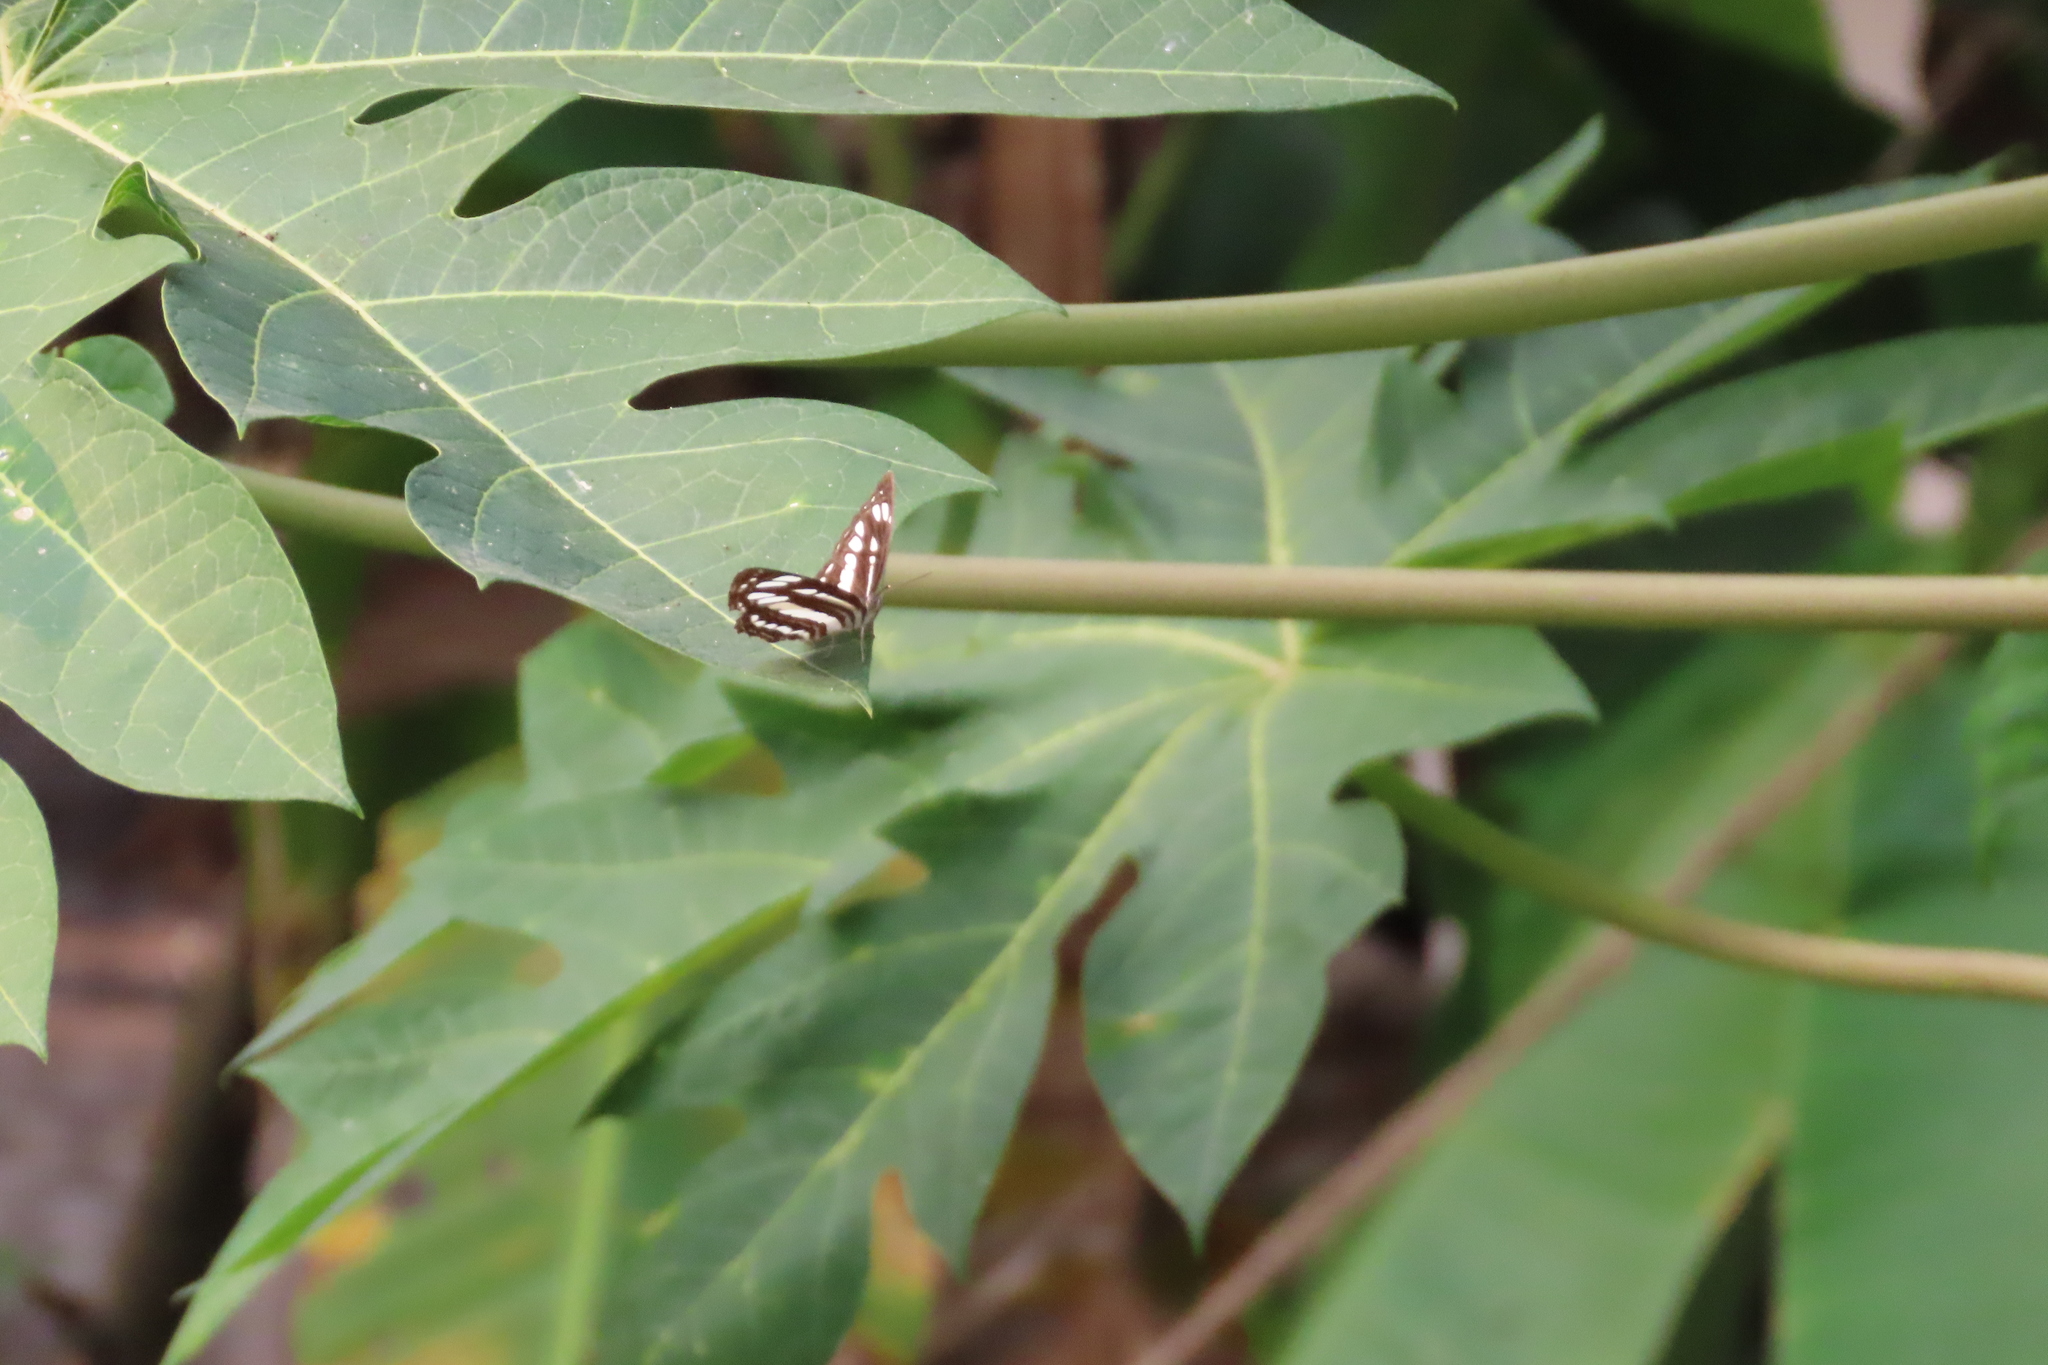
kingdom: Animalia
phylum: Arthropoda
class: Insecta
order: Lepidoptera
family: Nymphalidae
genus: Neptis
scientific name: Neptis hylas
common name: Common sailer
